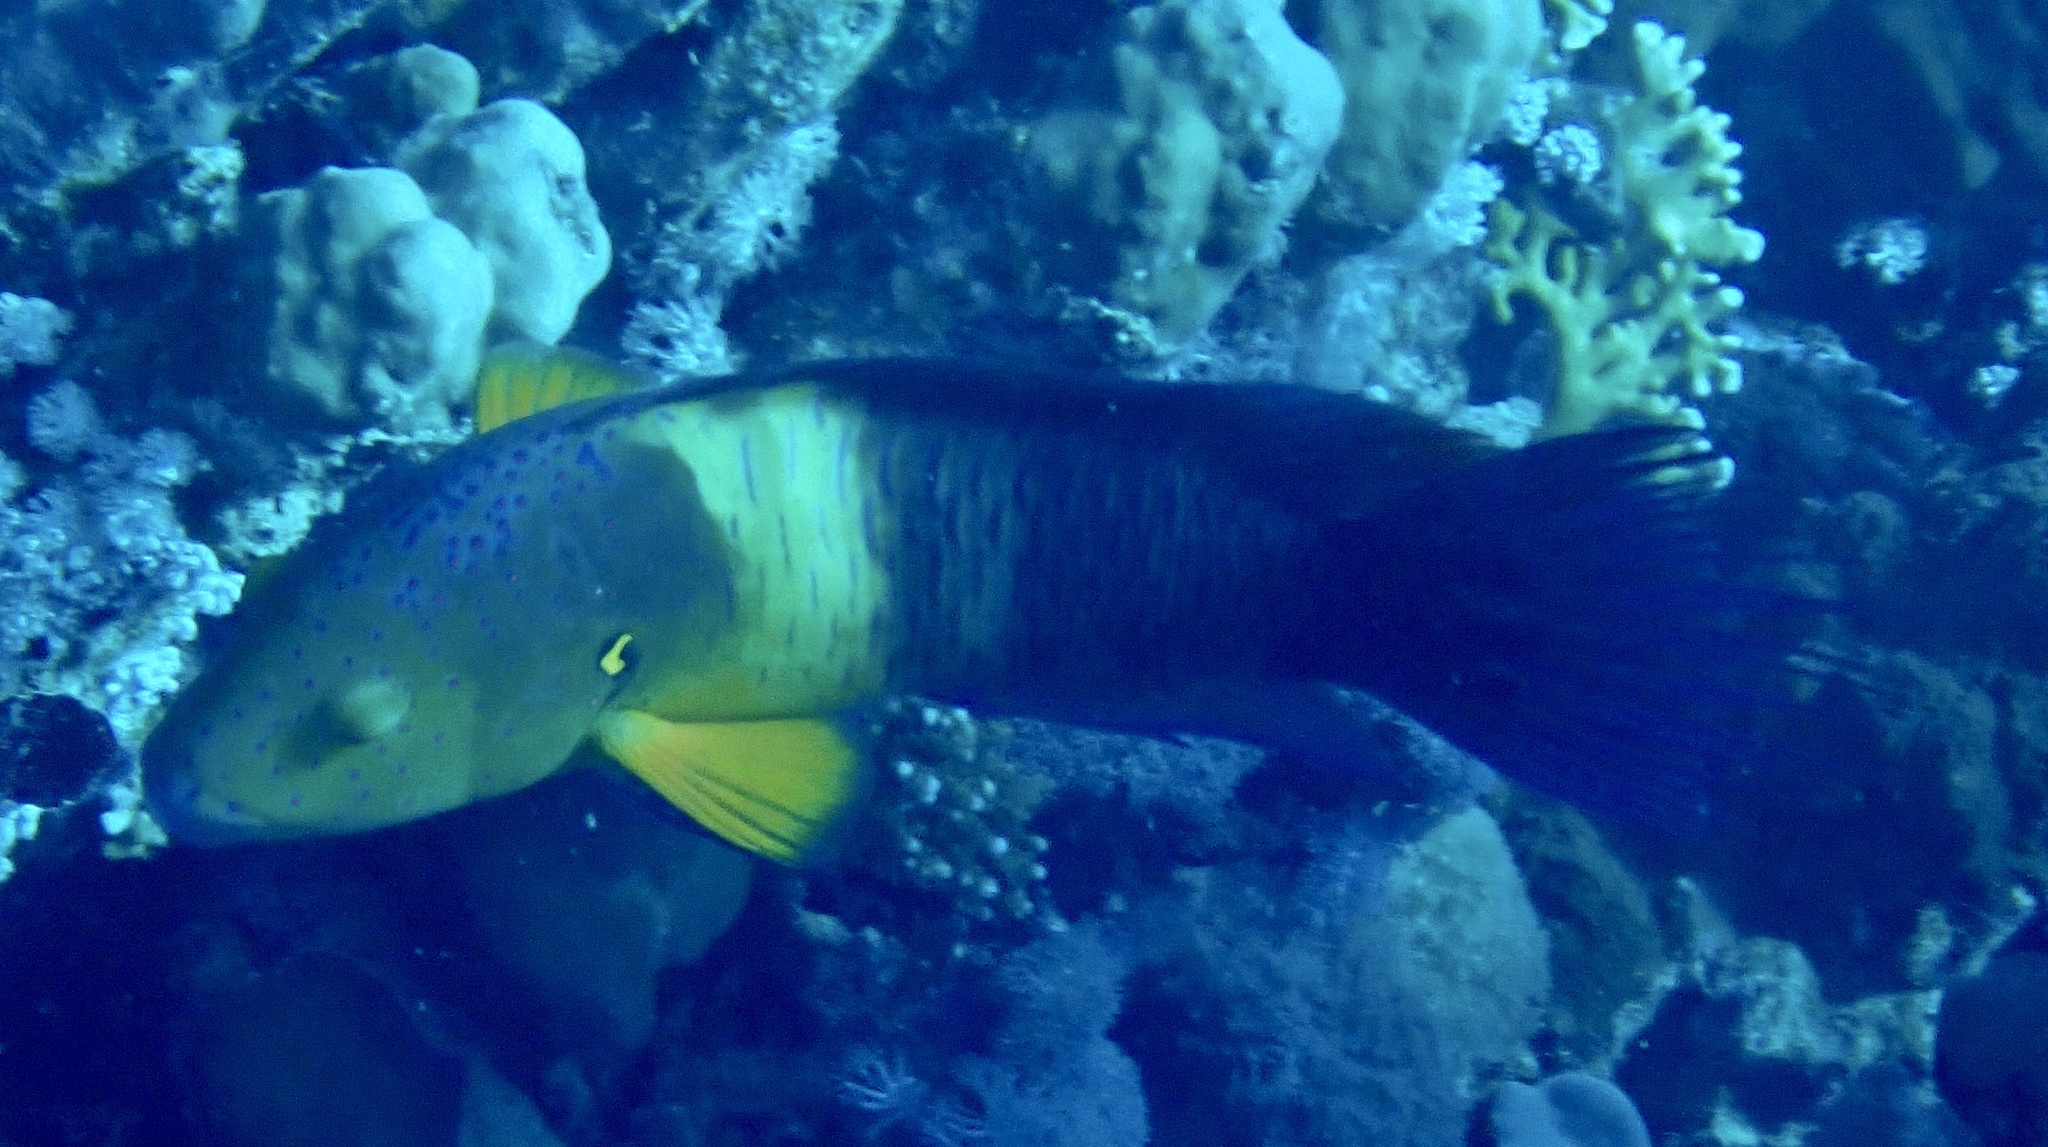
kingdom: Animalia
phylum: Chordata
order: Perciformes
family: Labridae
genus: Cheilinus
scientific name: Cheilinus lunulatus
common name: Broomtail wrasse
